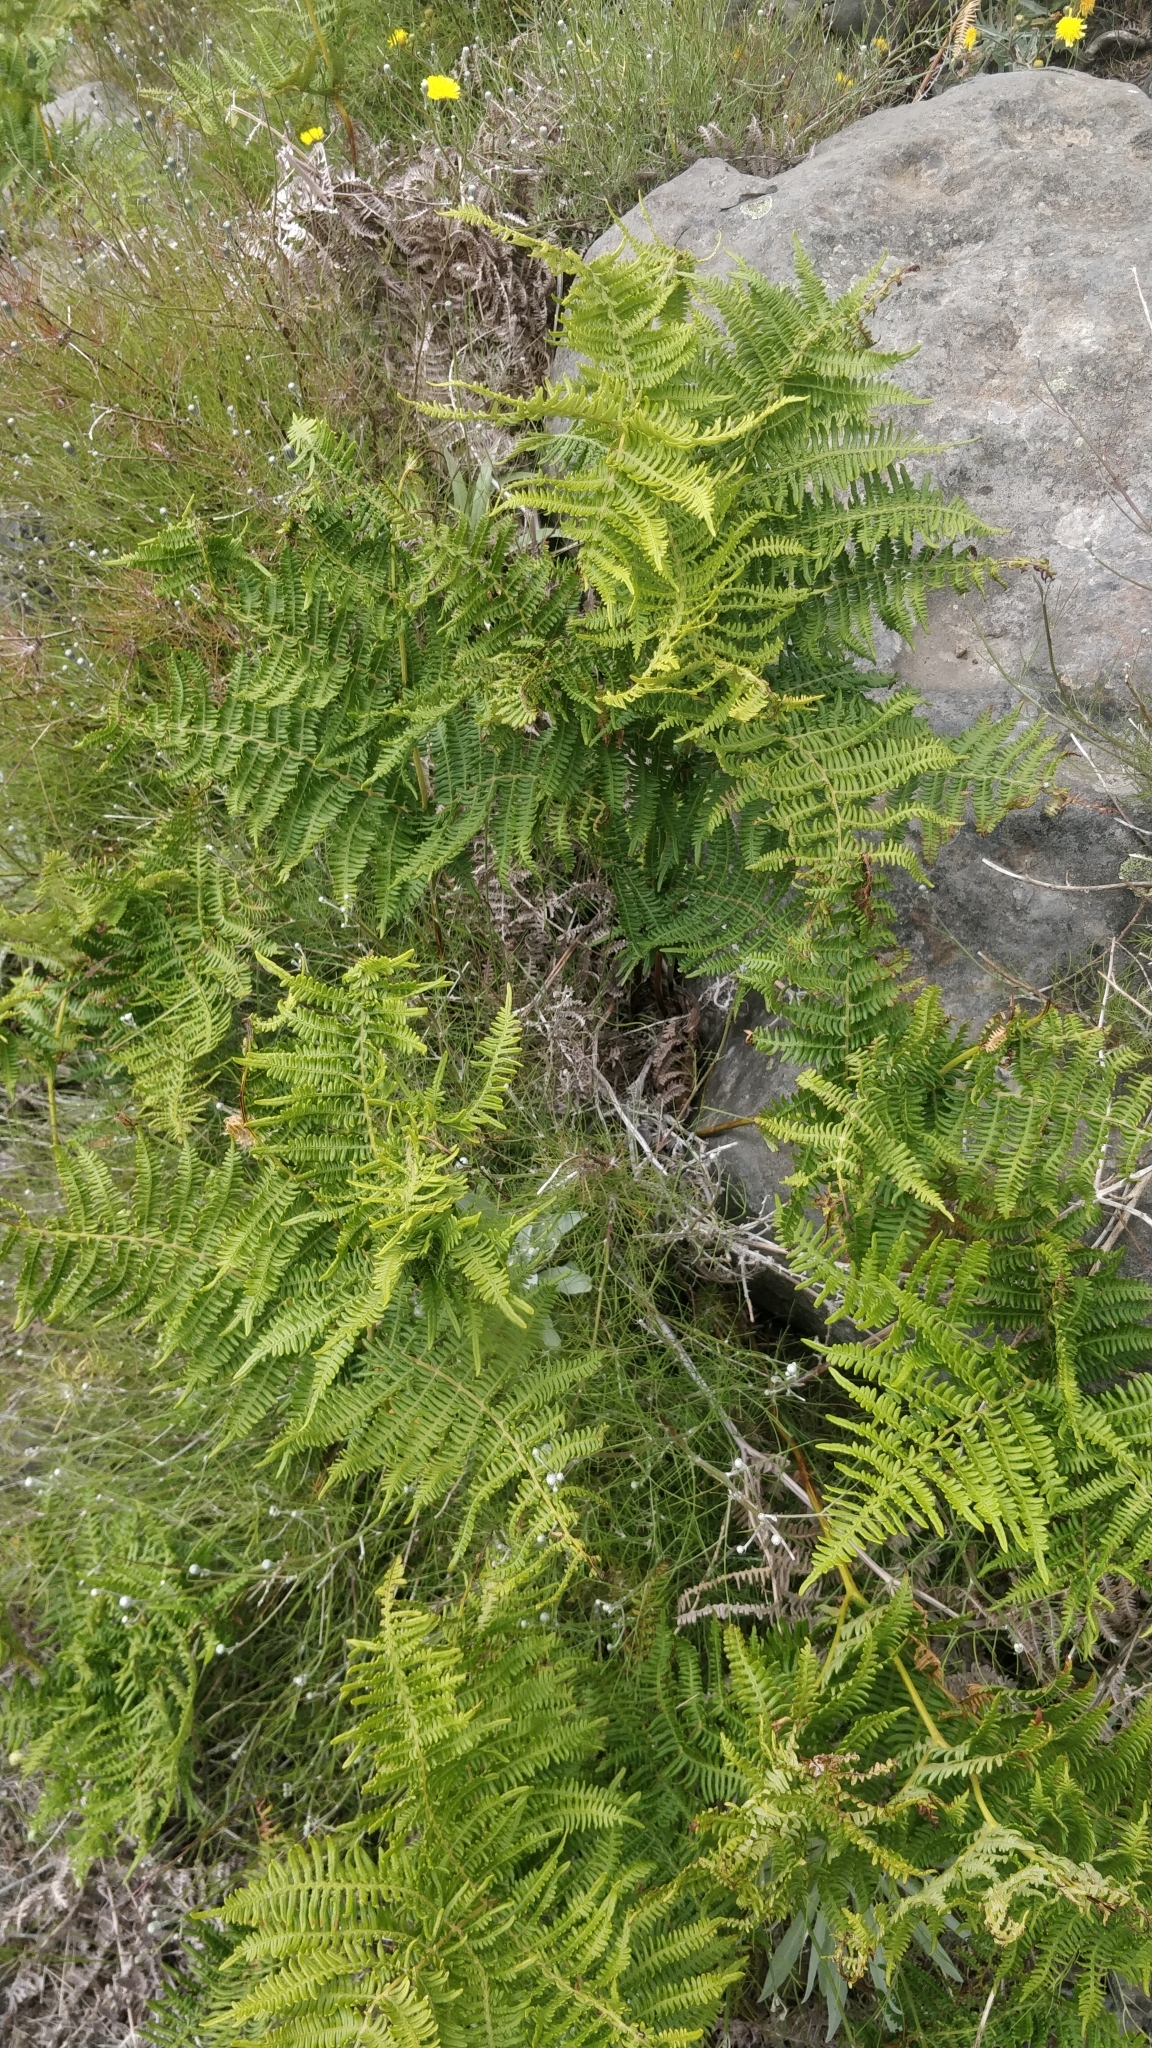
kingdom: Plantae
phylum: Tracheophyta
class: Polypodiopsida
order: Polypodiales
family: Dennstaedtiaceae
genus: Pteridium
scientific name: Pteridium aquilinum
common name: Bracken
